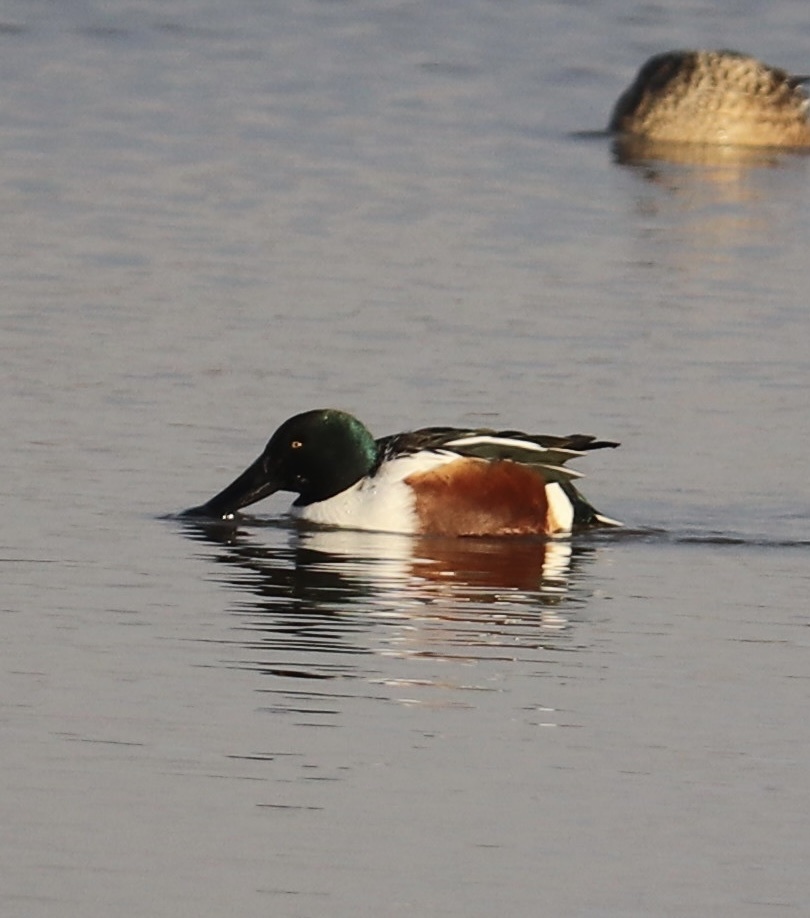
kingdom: Animalia
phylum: Chordata
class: Aves
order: Anseriformes
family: Anatidae
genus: Spatula
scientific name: Spatula clypeata
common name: Northern shoveler
